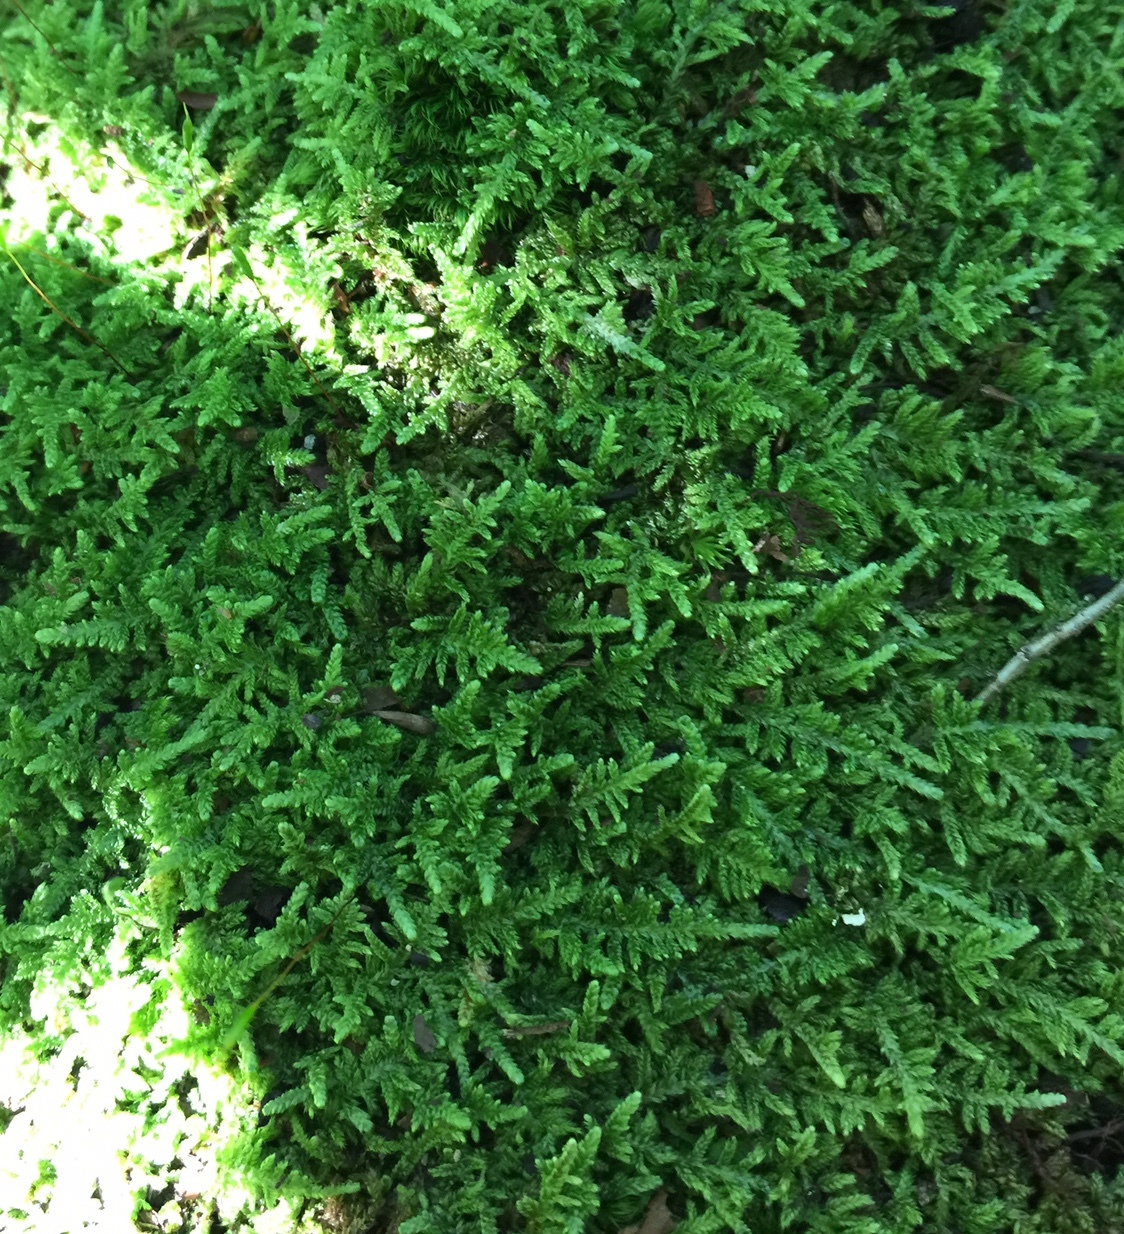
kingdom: Plantae
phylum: Bryophyta
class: Bryopsida
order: Hypnales
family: Callicladiaceae
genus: Callicladium
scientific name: Callicladium imponens
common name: Brocade moss
